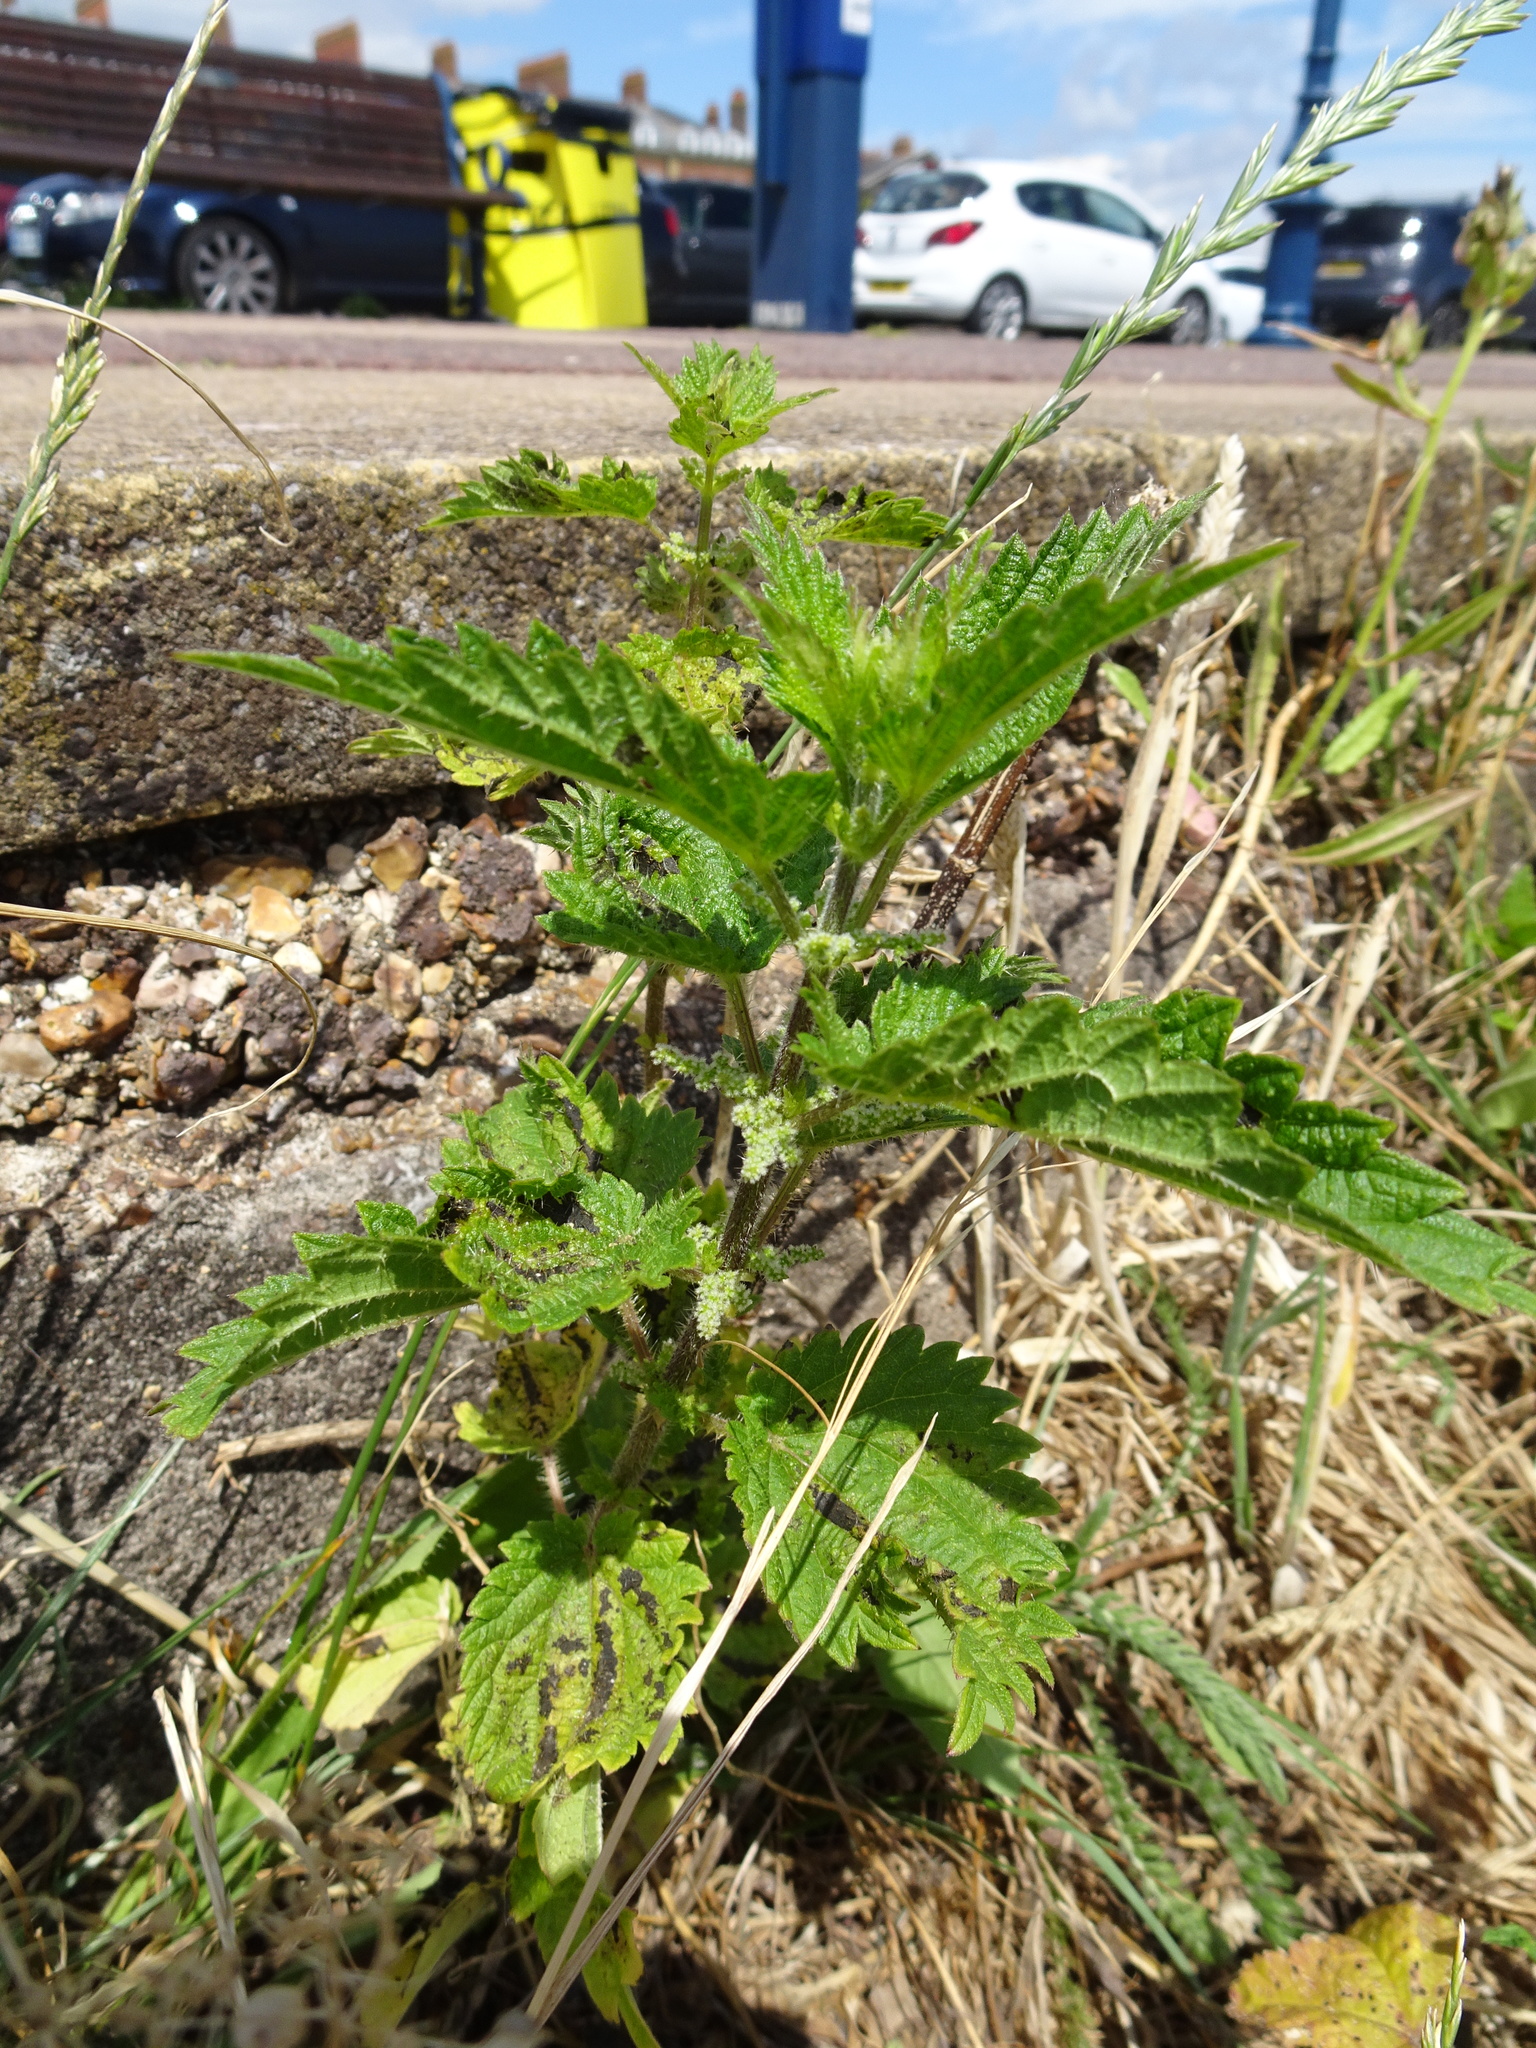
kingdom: Plantae
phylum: Tracheophyta
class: Magnoliopsida
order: Rosales
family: Urticaceae
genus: Urtica
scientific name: Urtica dioica
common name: Common nettle
